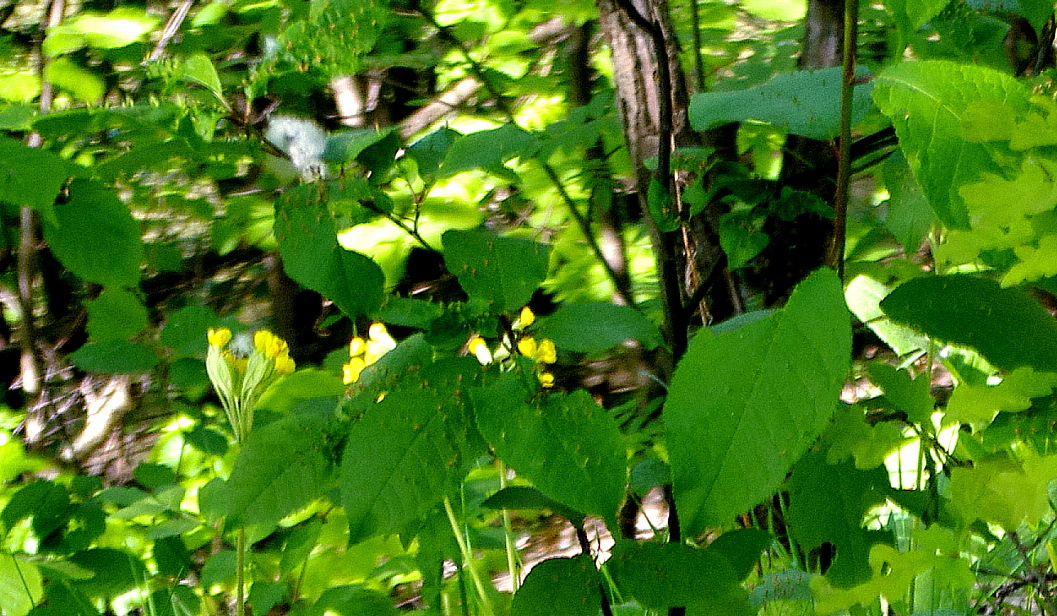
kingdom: Plantae
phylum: Tracheophyta
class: Magnoliopsida
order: Rosales
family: Rosaceae
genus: Prunus
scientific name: Prunus padus
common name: Bird cherry
